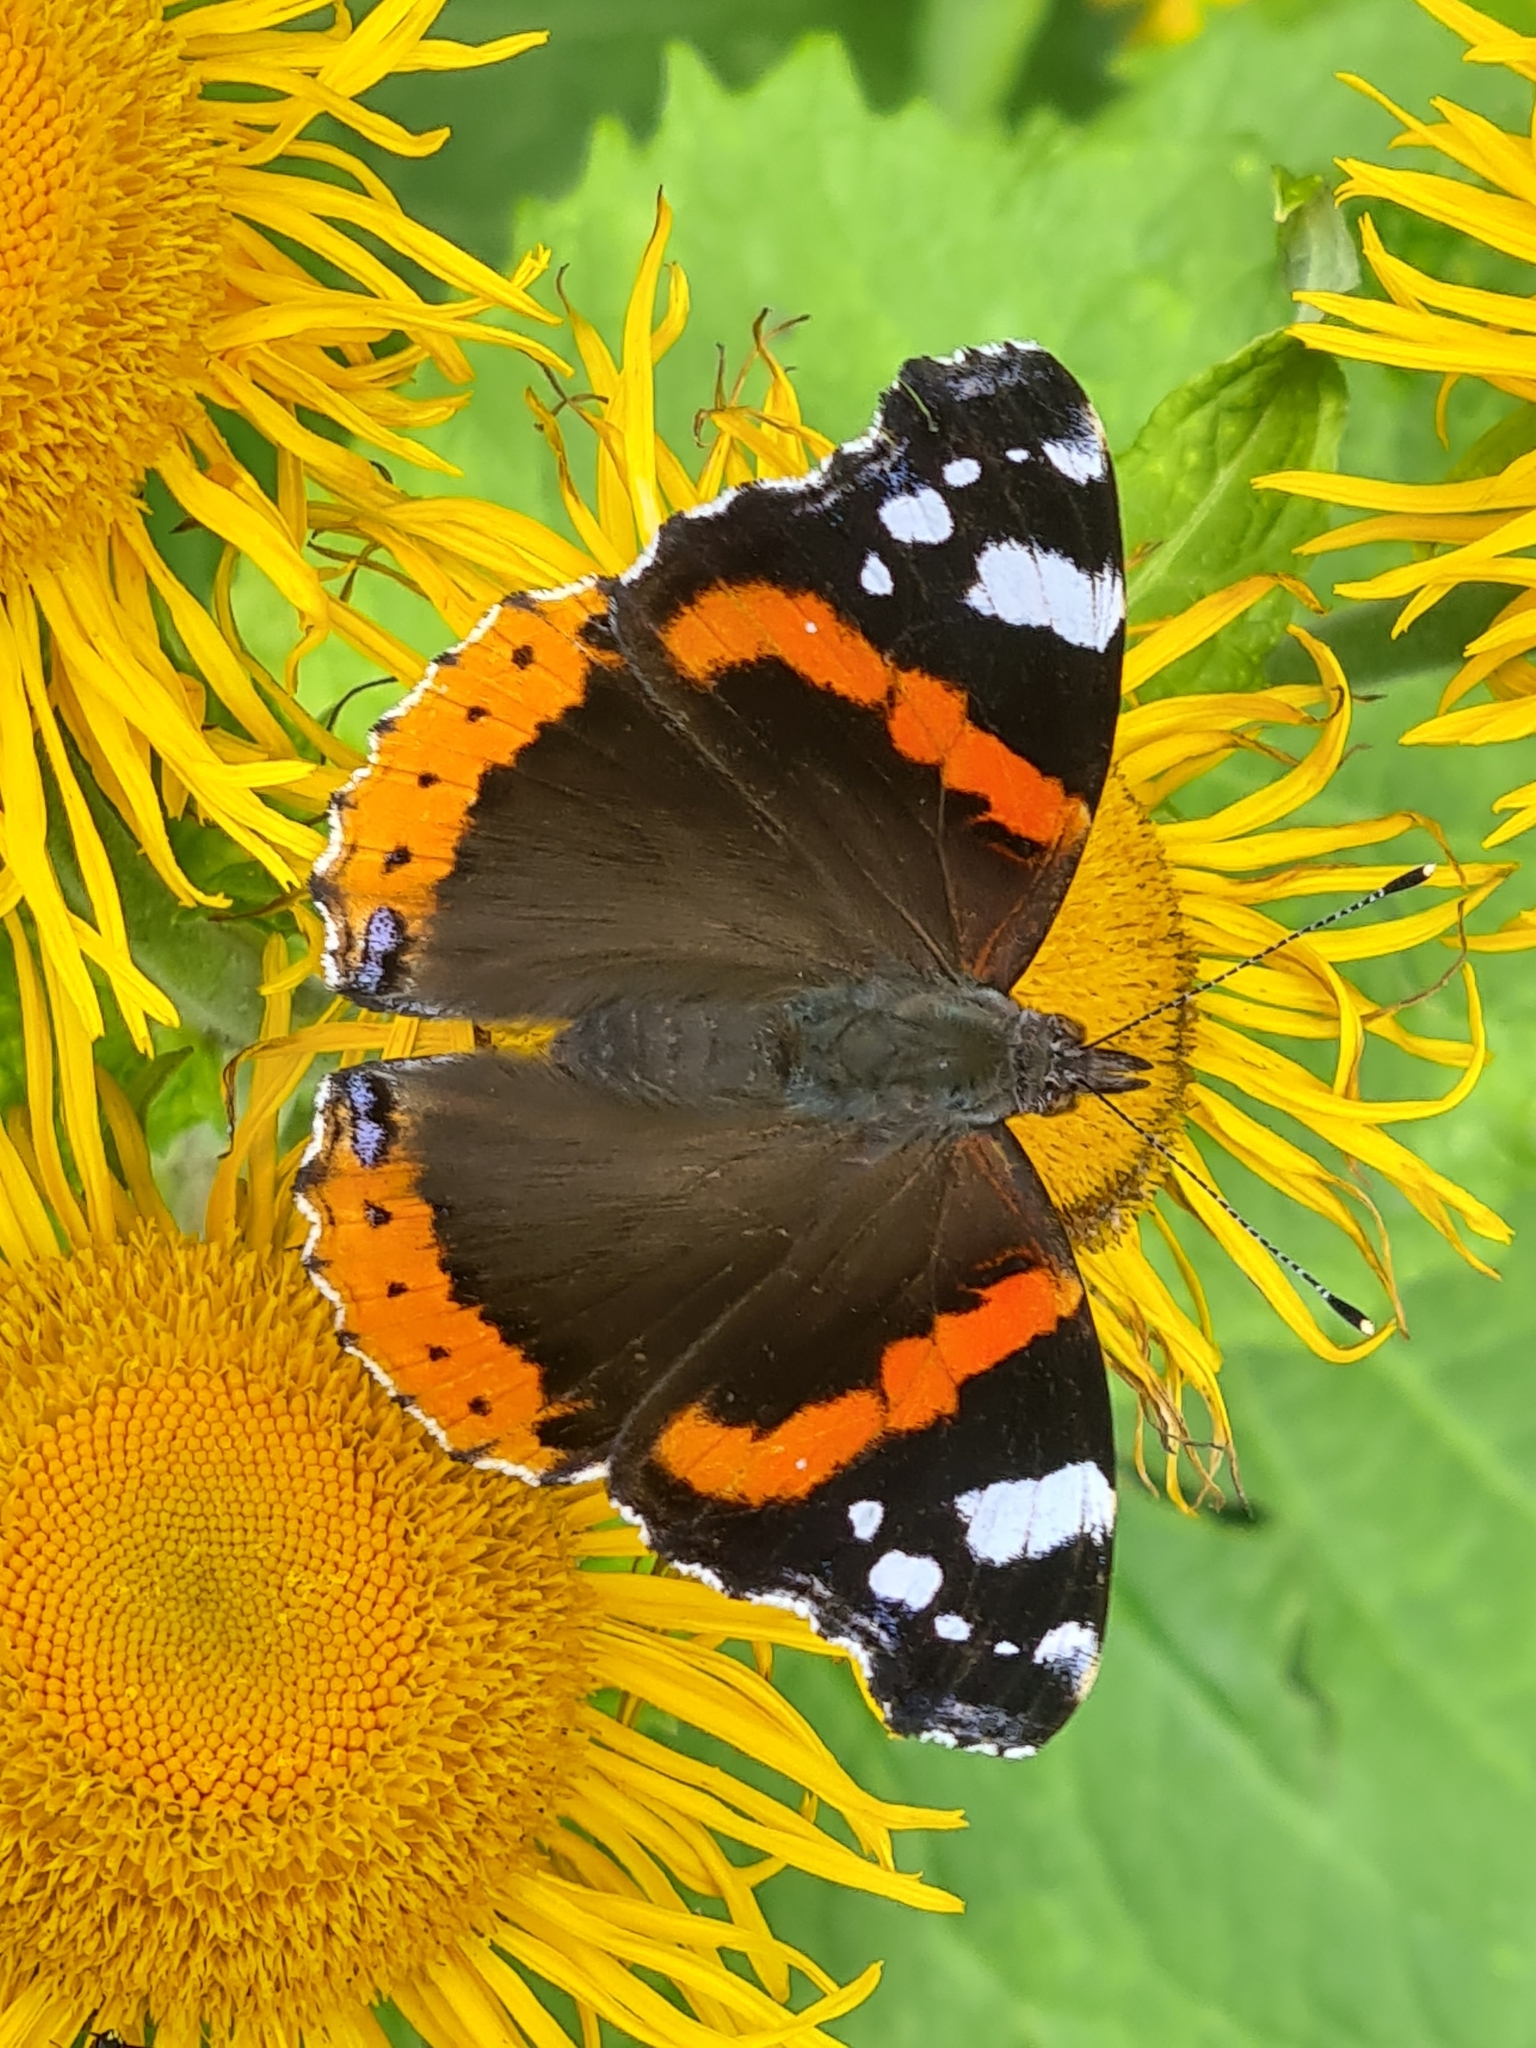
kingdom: Animalia
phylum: Arthropoda
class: Insecta
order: Lepidoptera
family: Nymphalidae
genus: Vanessa
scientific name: Vanessa atalanta
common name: Red admiral
